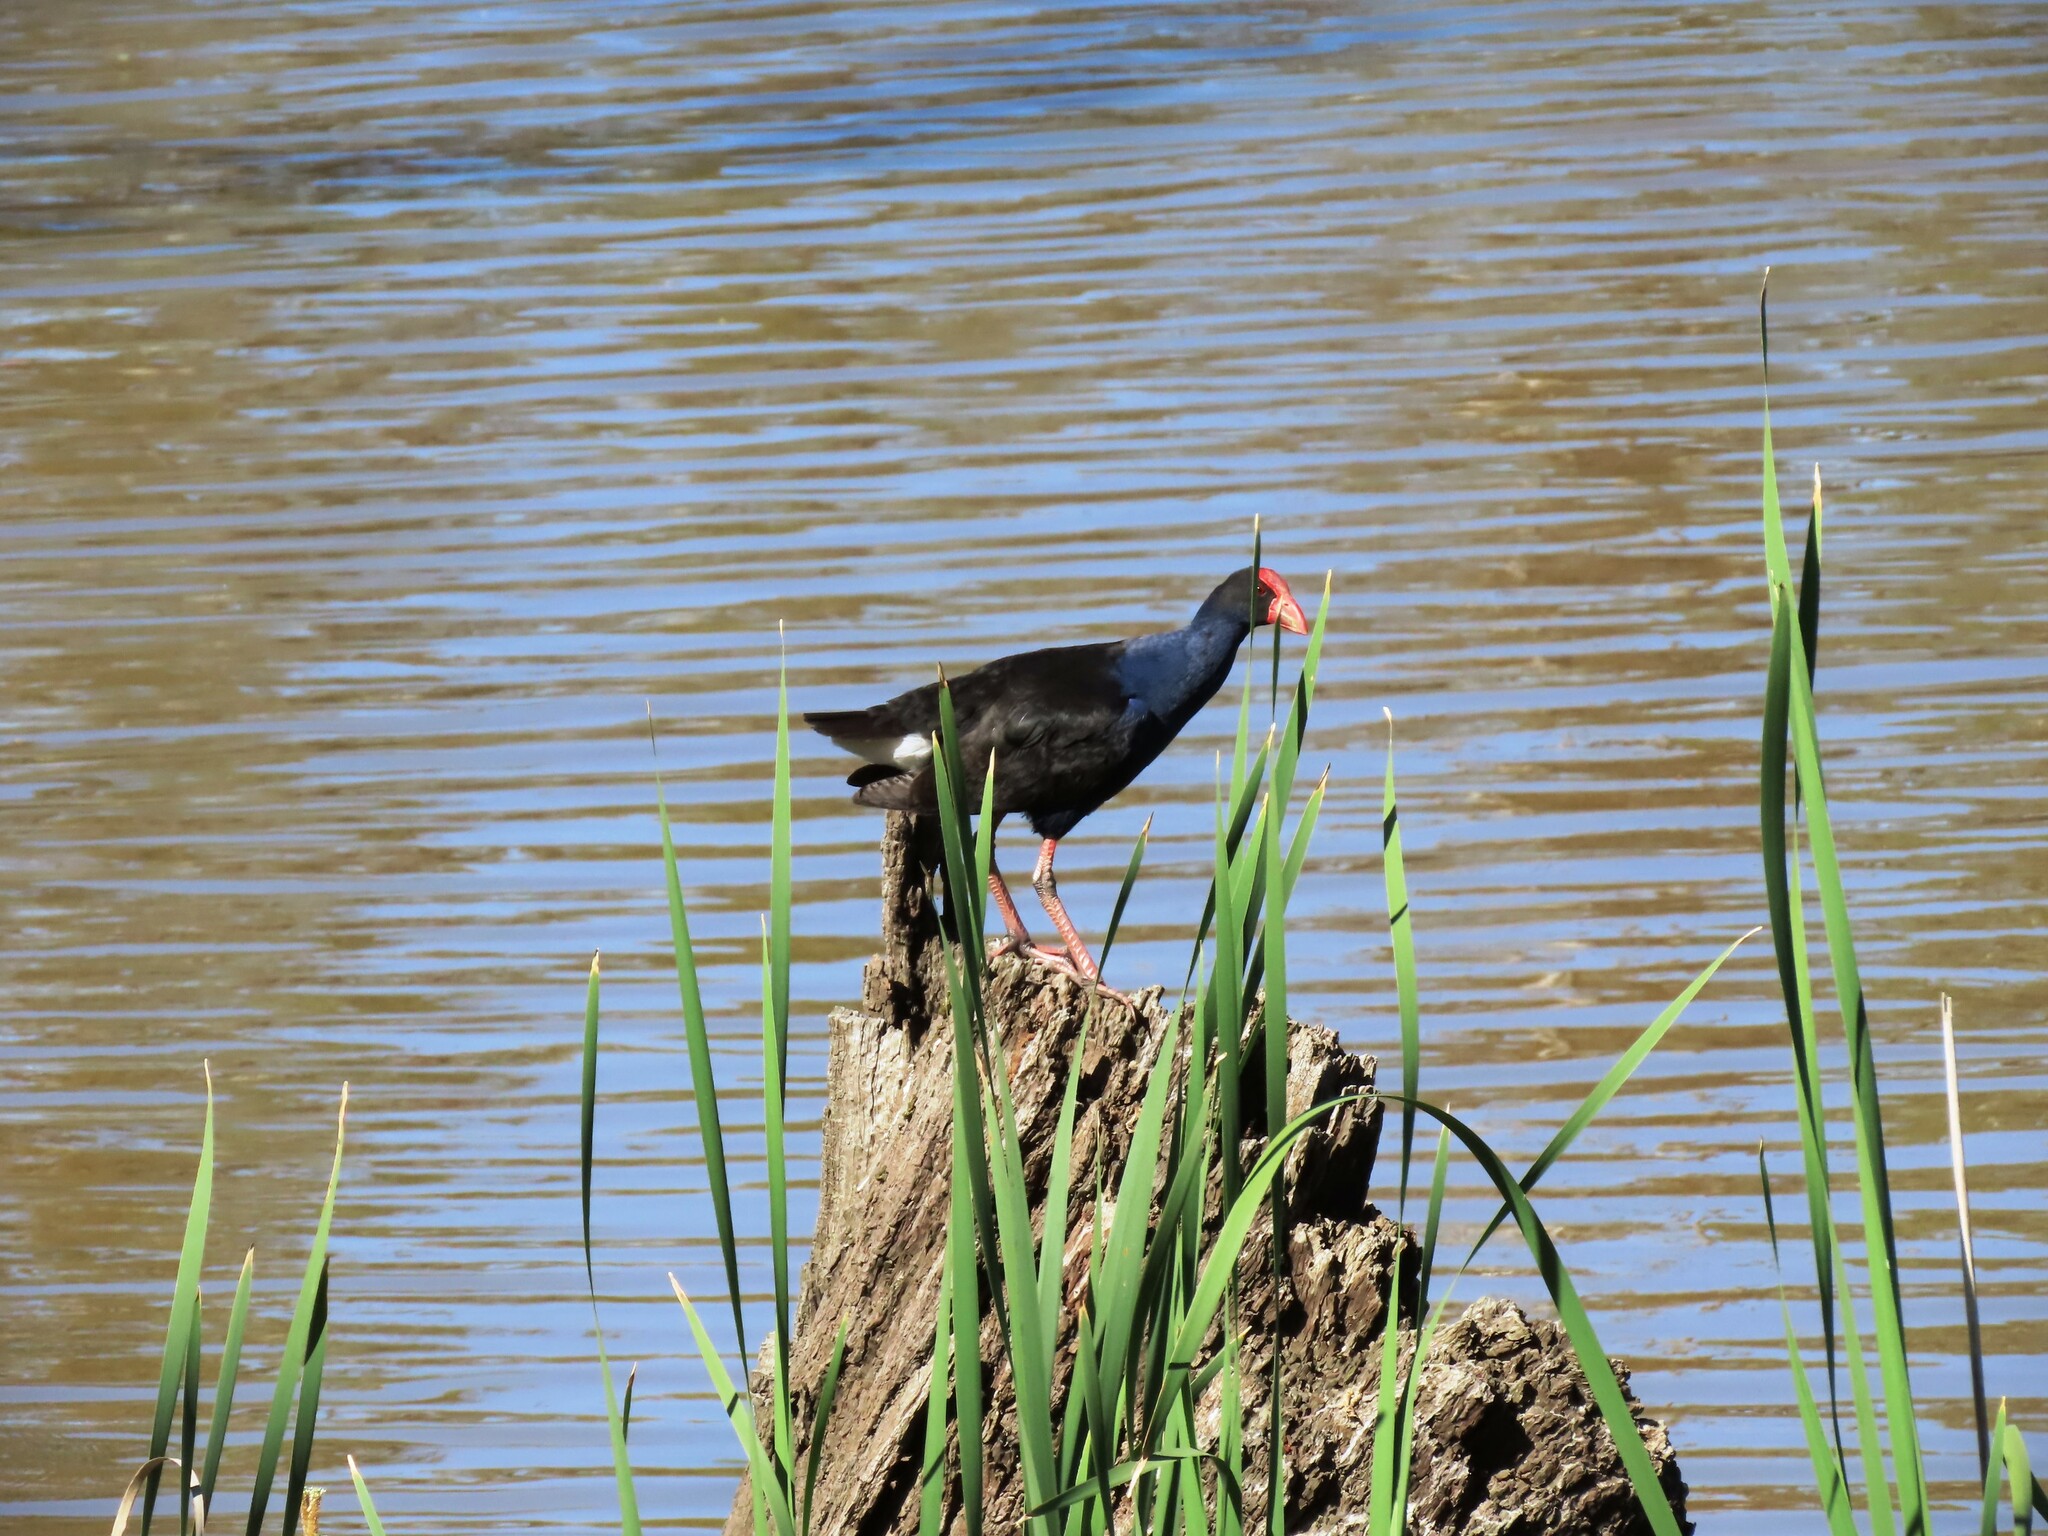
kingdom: Animalia
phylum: Chordata
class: Aves
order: Gruiformes
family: Rallidae
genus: Porphyrio
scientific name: Porphyrio melanotus
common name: Australasian swamphen
